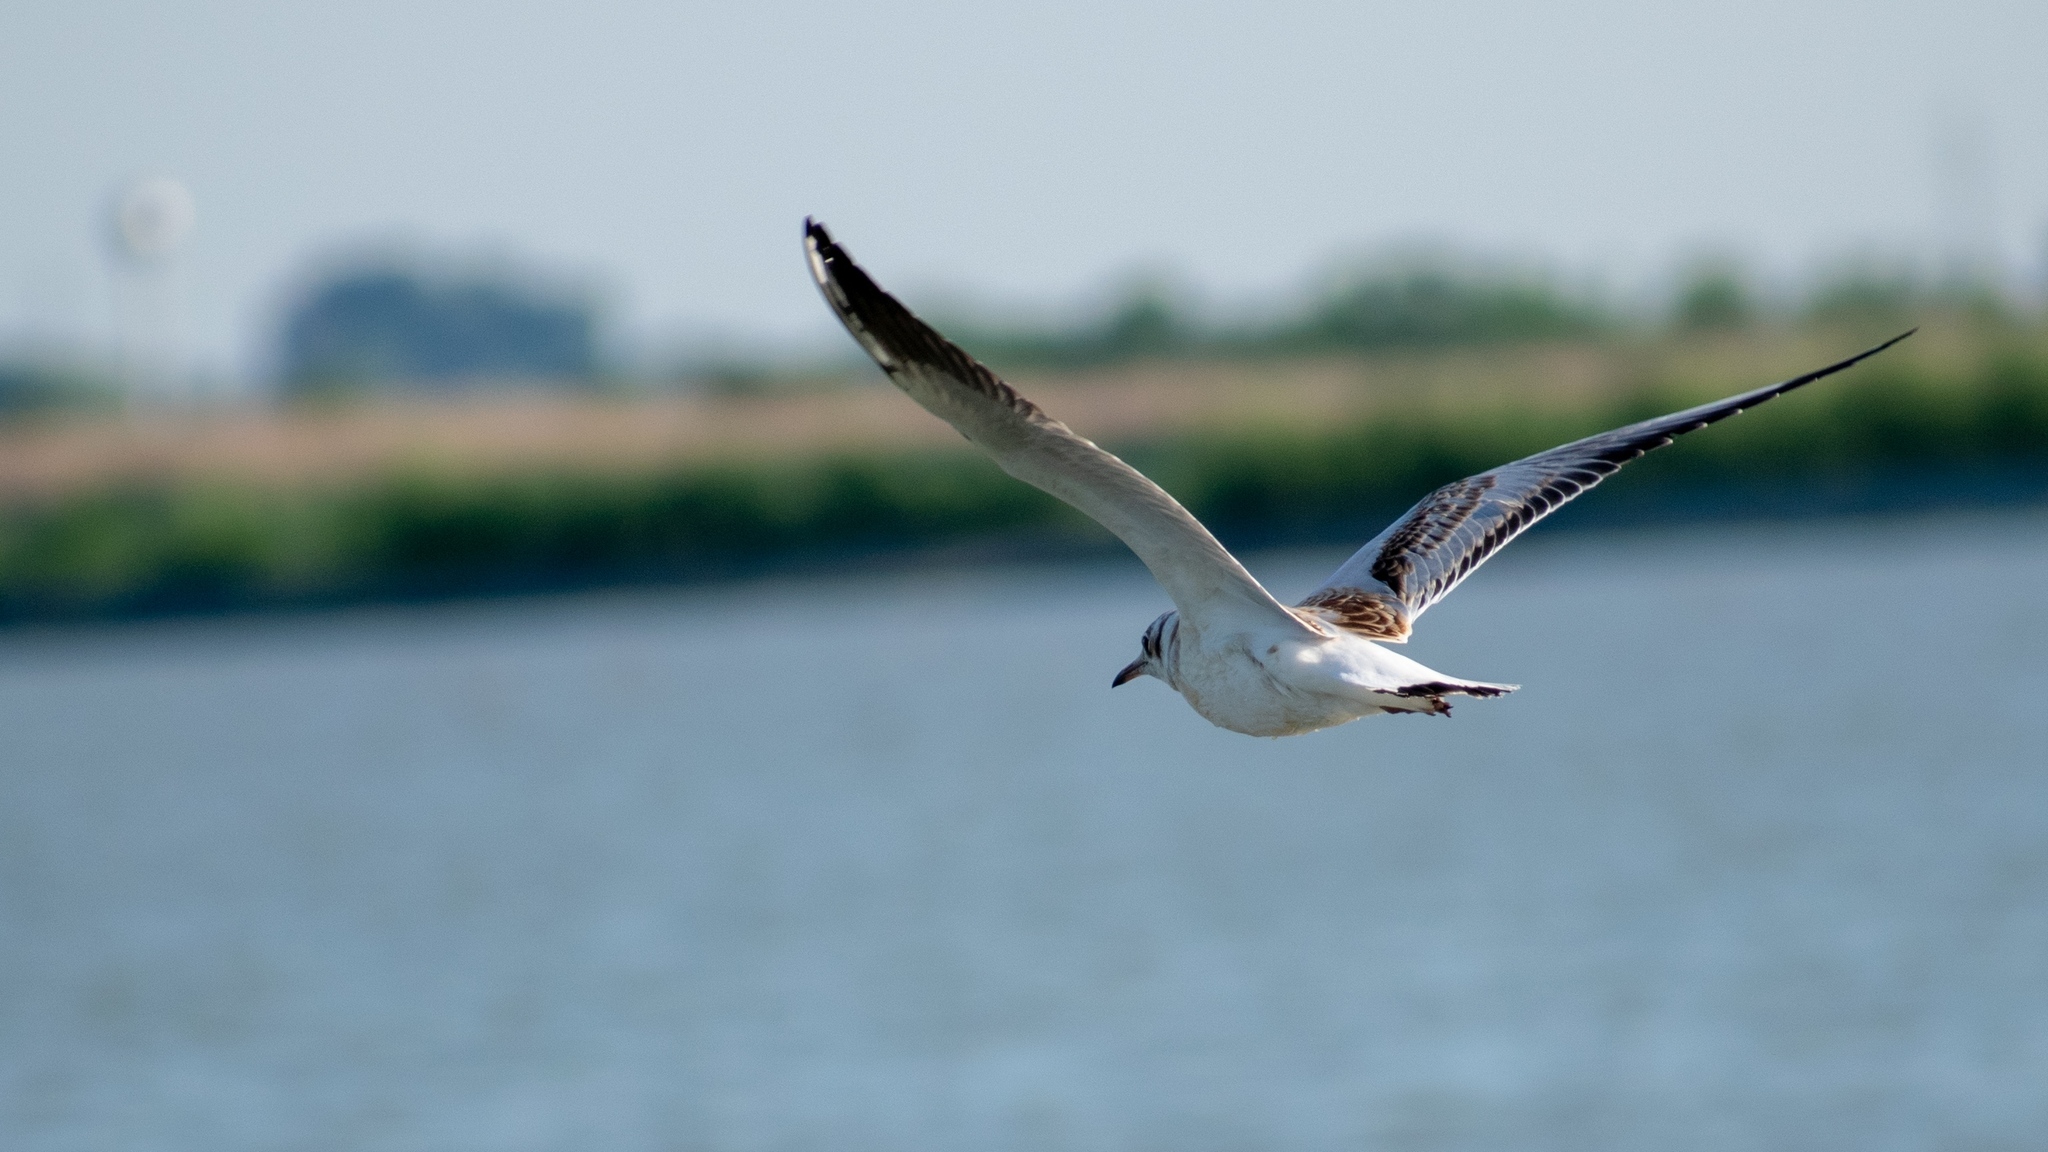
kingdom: Animalia
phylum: Chordata
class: Aves
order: Charadriiformes
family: Laridae
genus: Chroicocephalus
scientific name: Chroicocephalus ridibundus
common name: Black-headed gull
